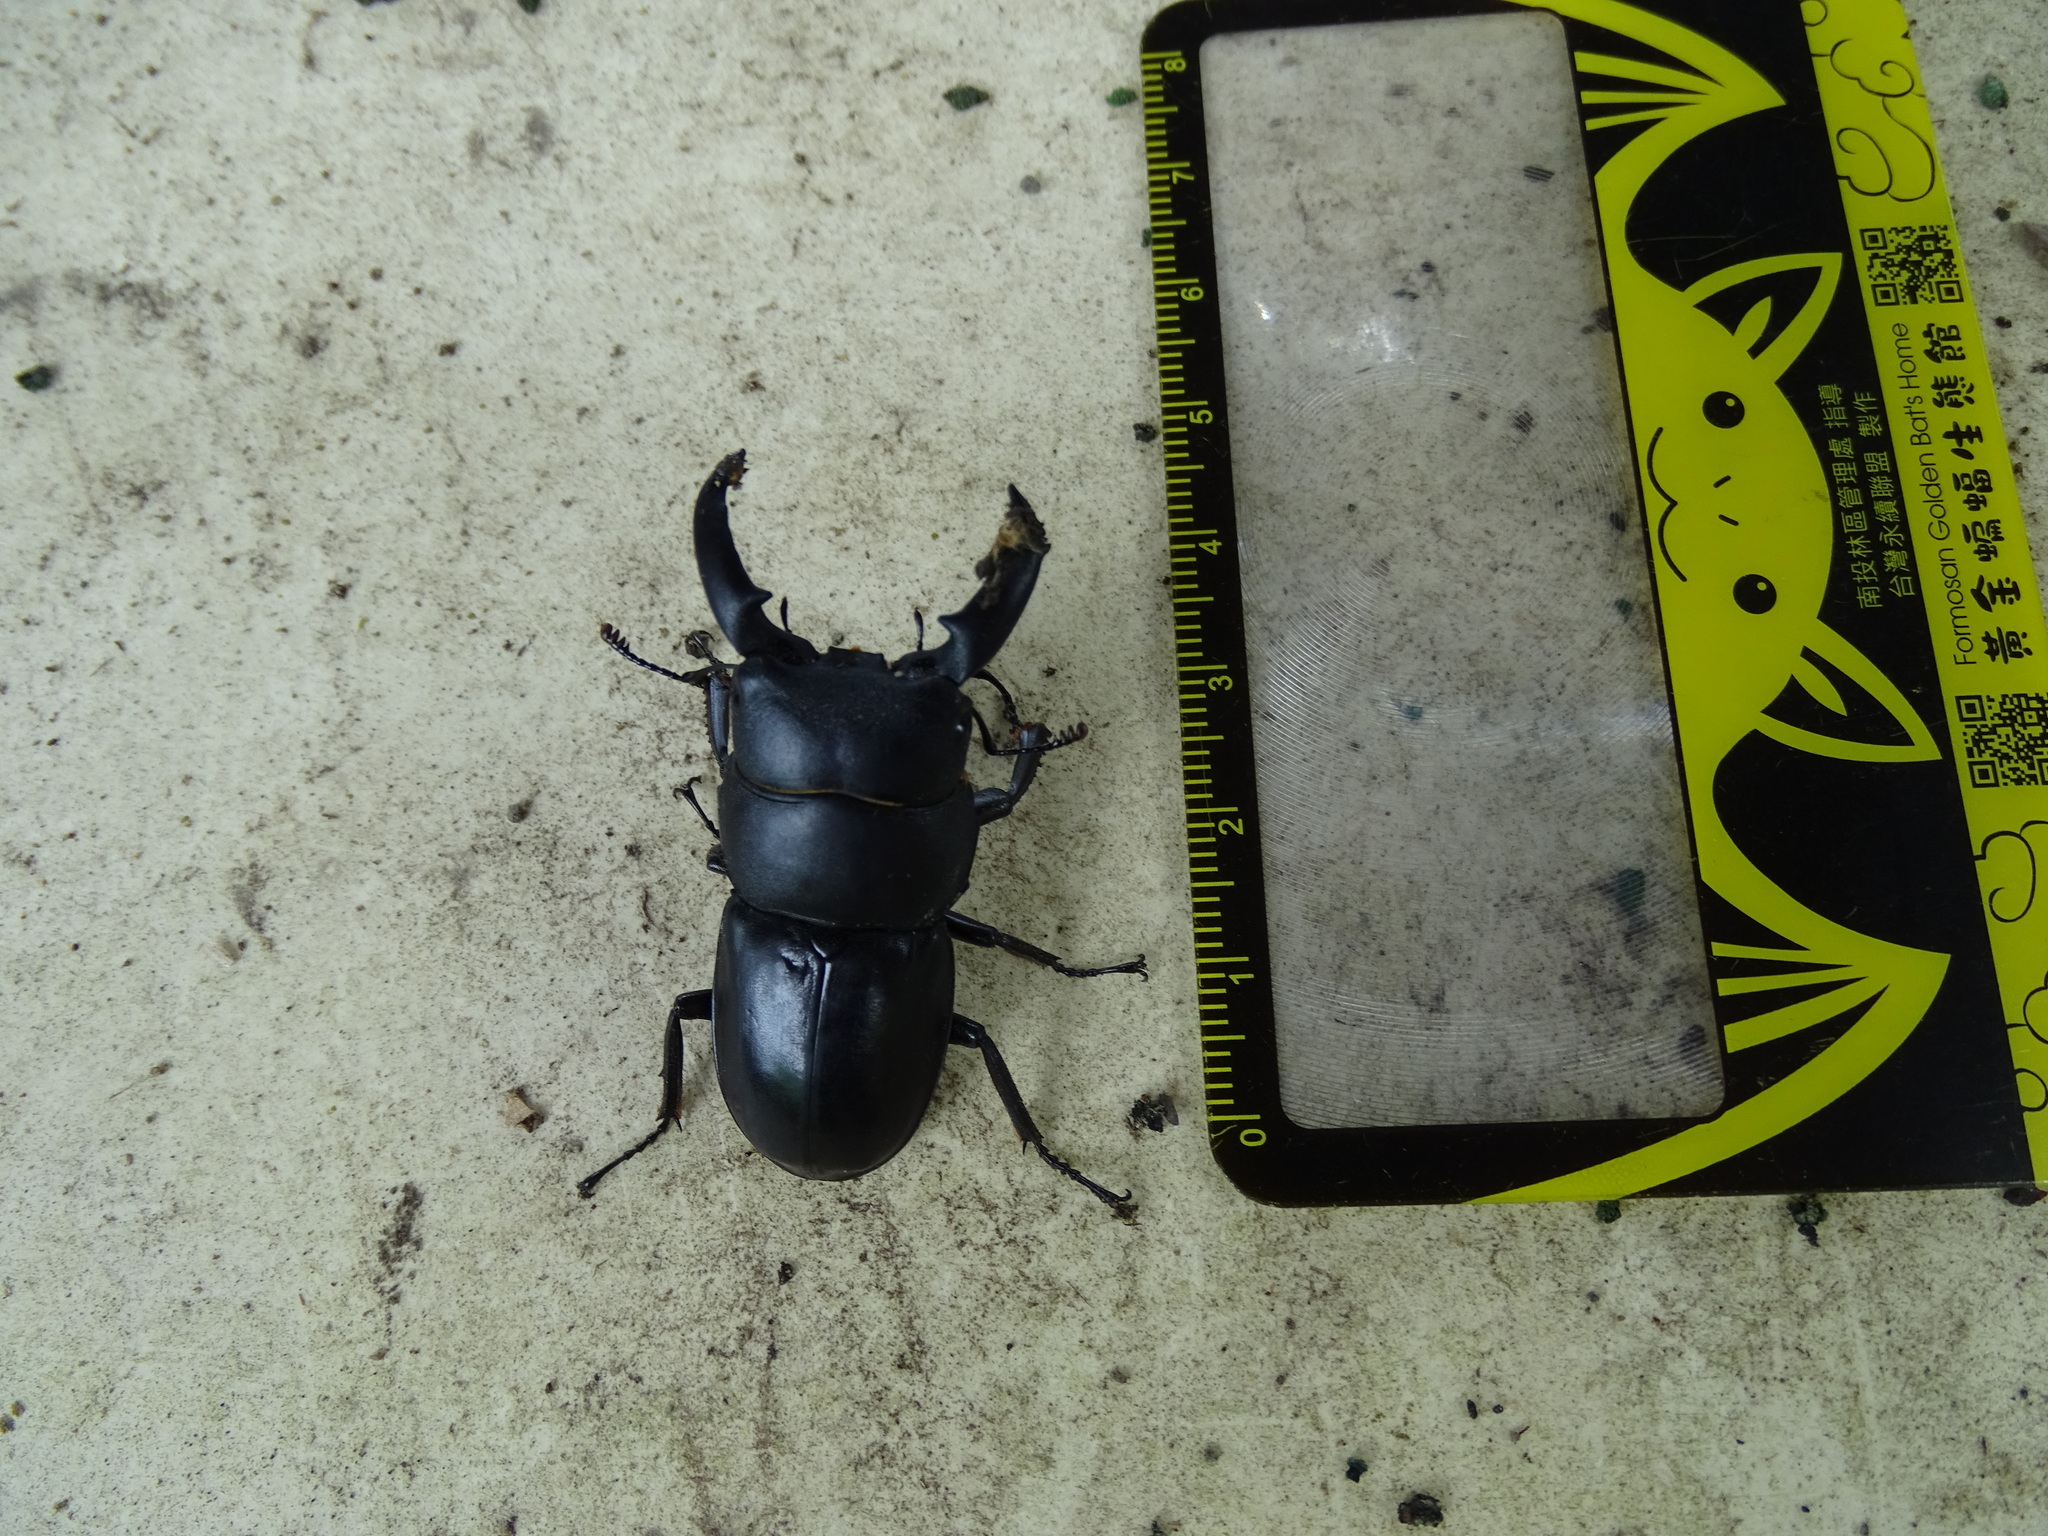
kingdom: Animalia
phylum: Arthropoda
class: Insecta
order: Coleoptera
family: Lucanidae
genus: Serrognathus
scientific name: Serrognathus titanus
